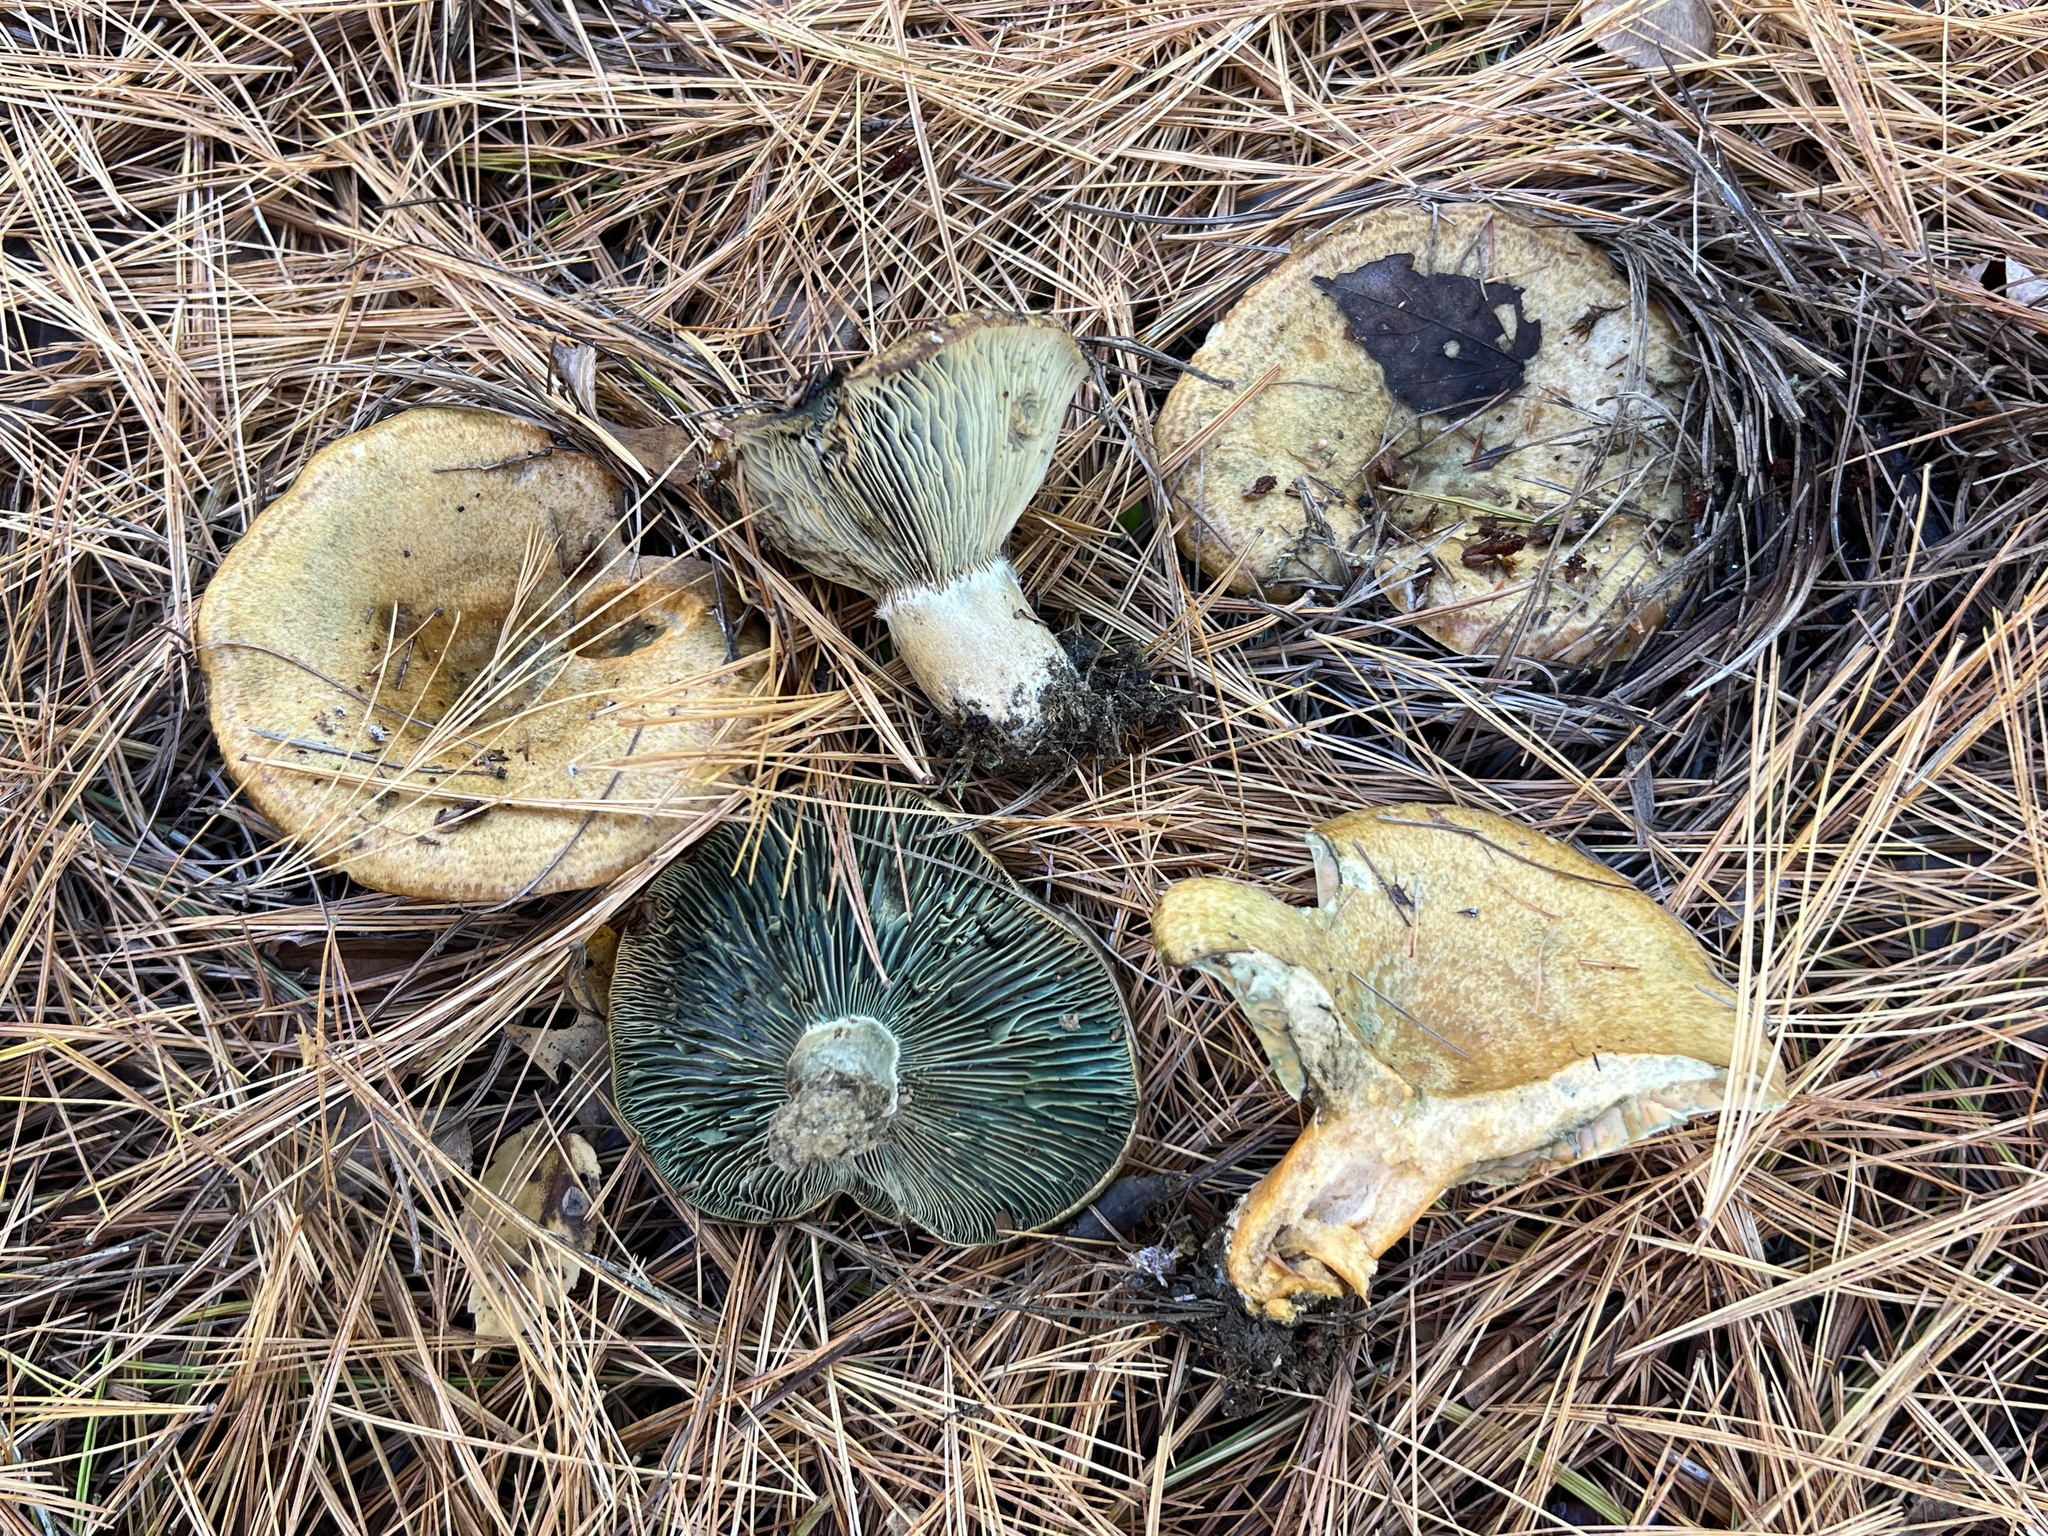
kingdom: Fungi
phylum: Basidiomycota
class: Agaricomycetes
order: Russulales
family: Russulaceae
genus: Lactarius
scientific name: Lactarius chelidonium
